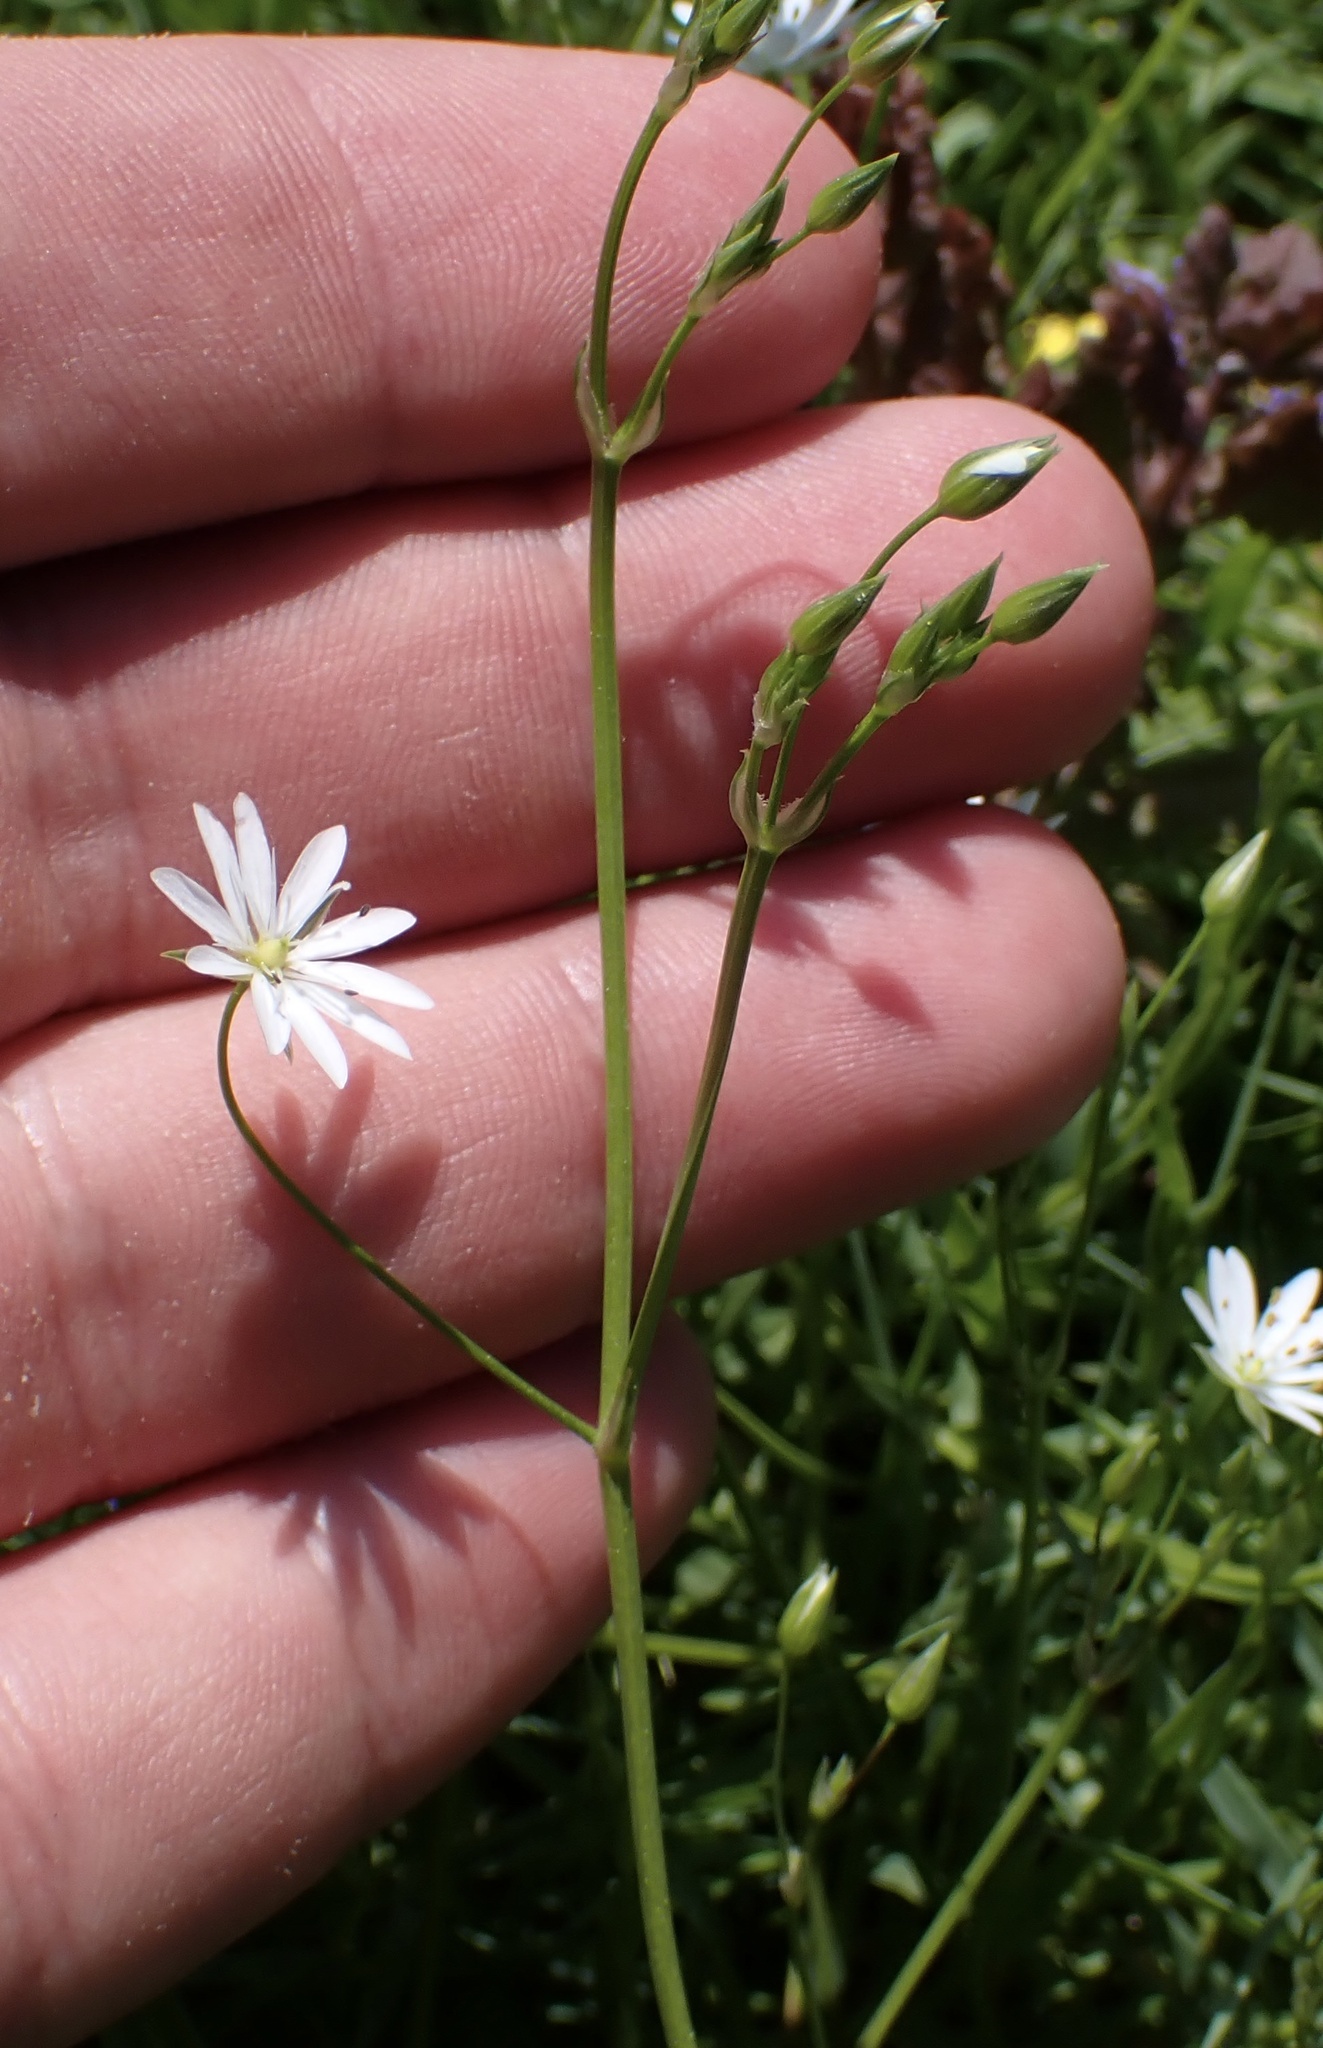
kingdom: Plantae
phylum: Tracheophyta
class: Magnoliopsida
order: Caryophyllales
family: Caryophyllaceae
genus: Stellaria
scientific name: Stellaria graminea
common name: Grass-like starwort
